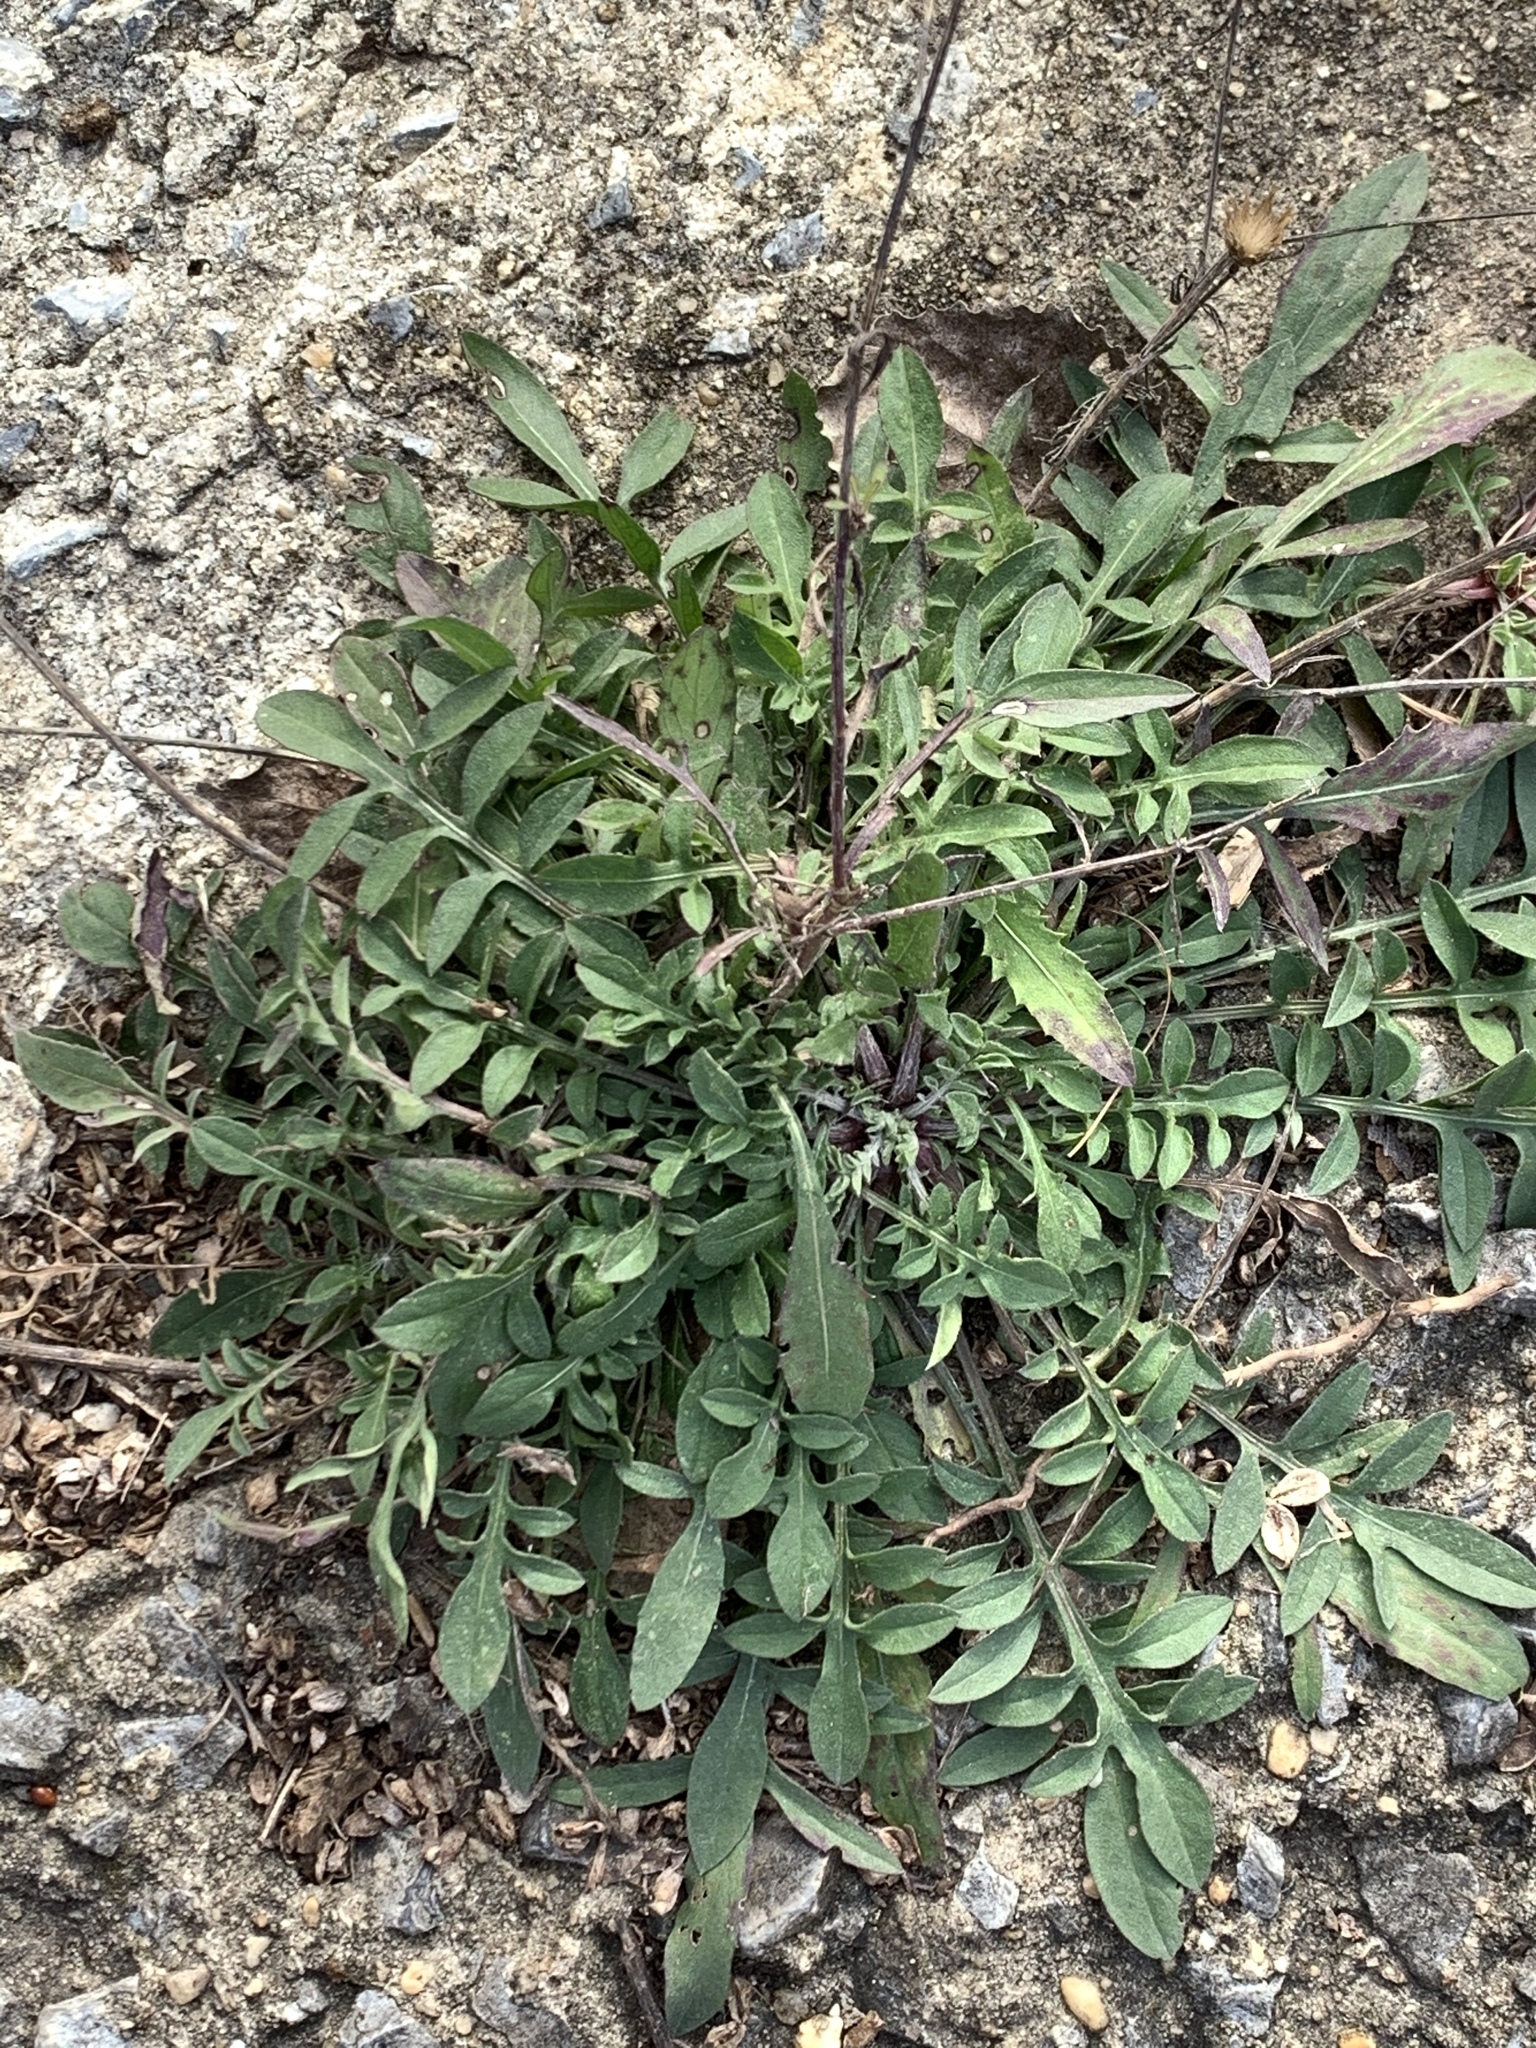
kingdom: Plantae
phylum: Tracheophyta
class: Magnoliopsida
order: Asterales
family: Asteraceae
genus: Centaurea
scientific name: Centaurea stoebe
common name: Spotted knapweed
